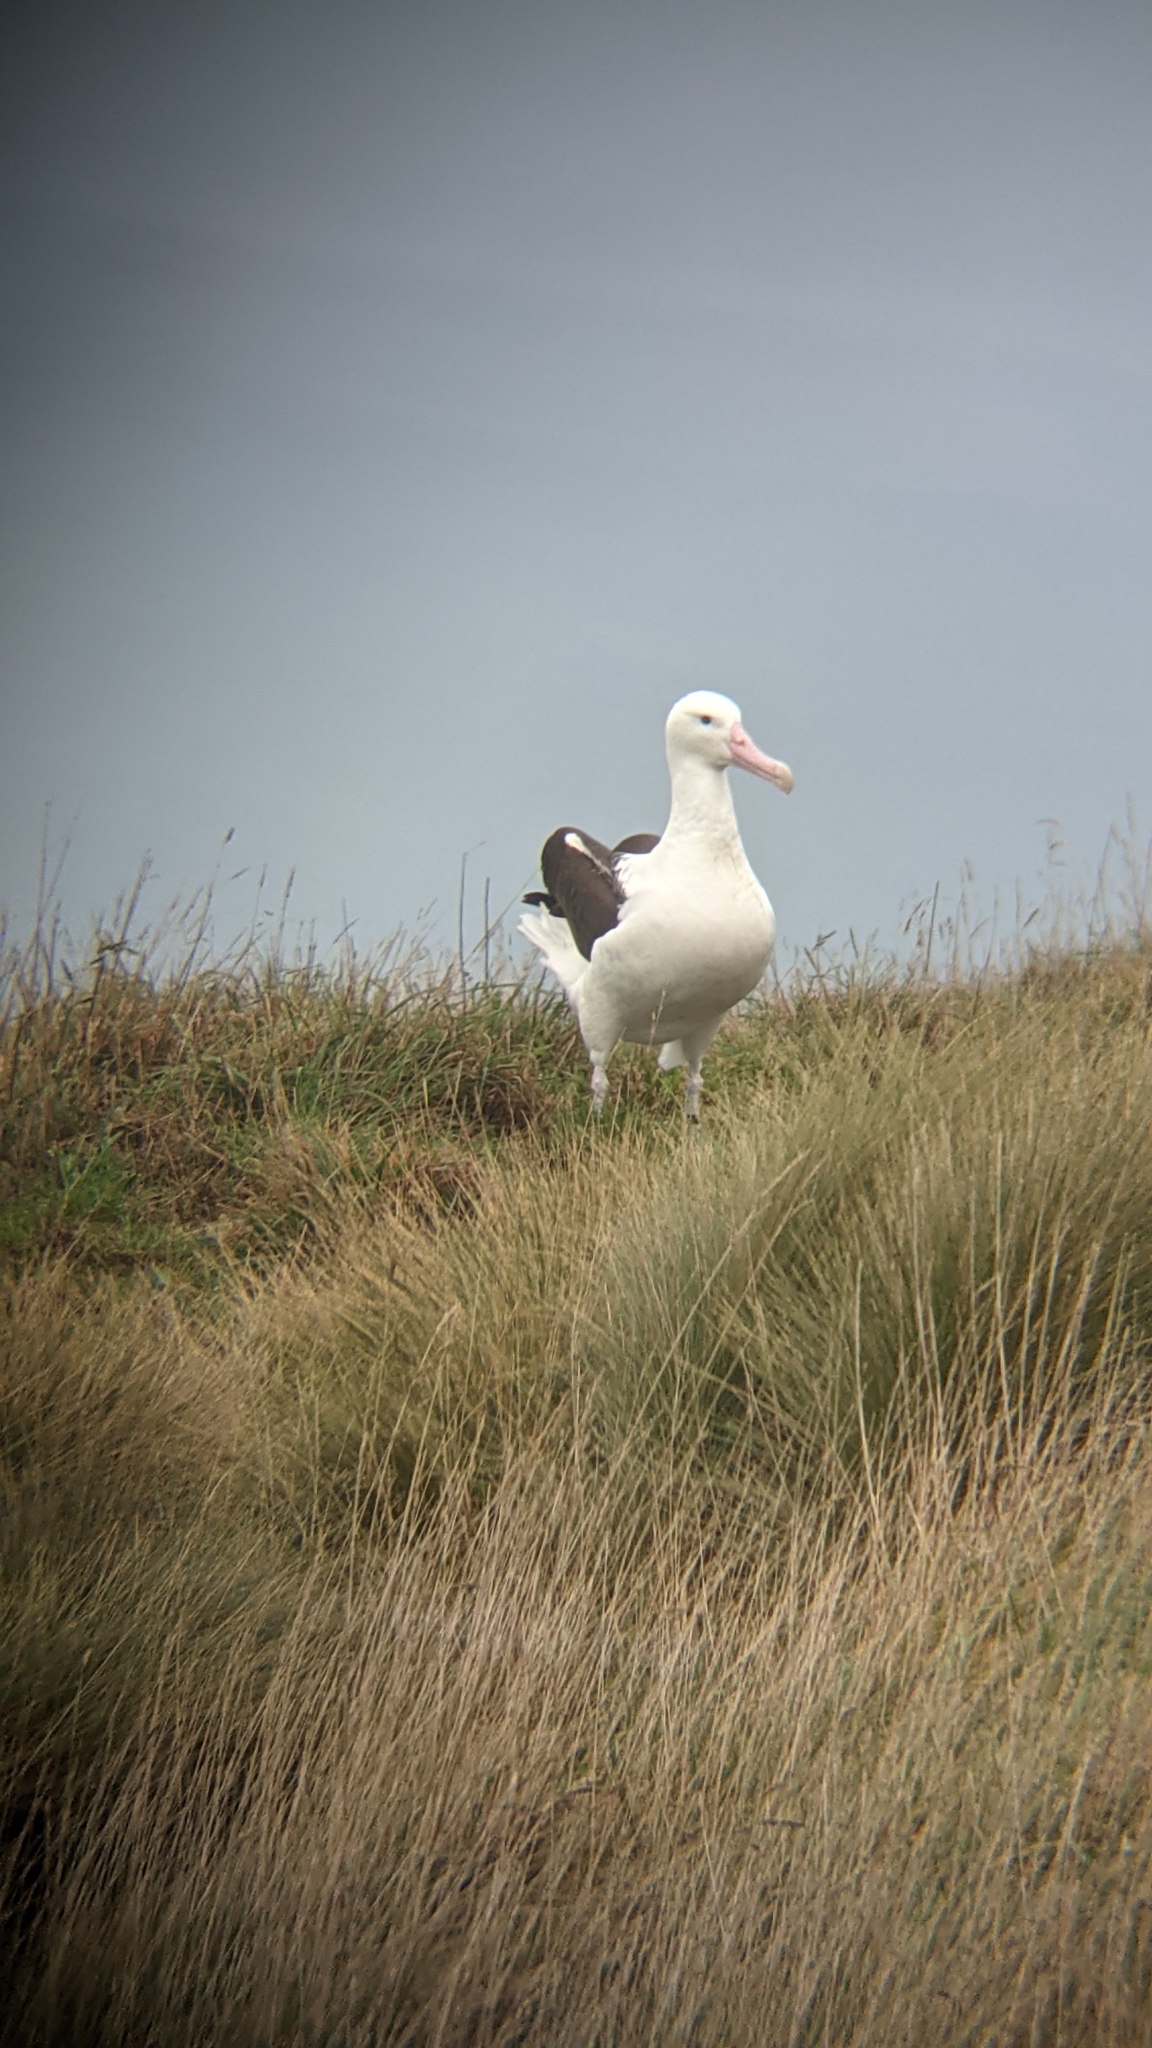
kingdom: Animalia
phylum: Chordata
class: Aves
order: Procellariiformes
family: Diomedeidae
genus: Diomedea
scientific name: Diomedea sanfordi
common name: Northern royal albatross
